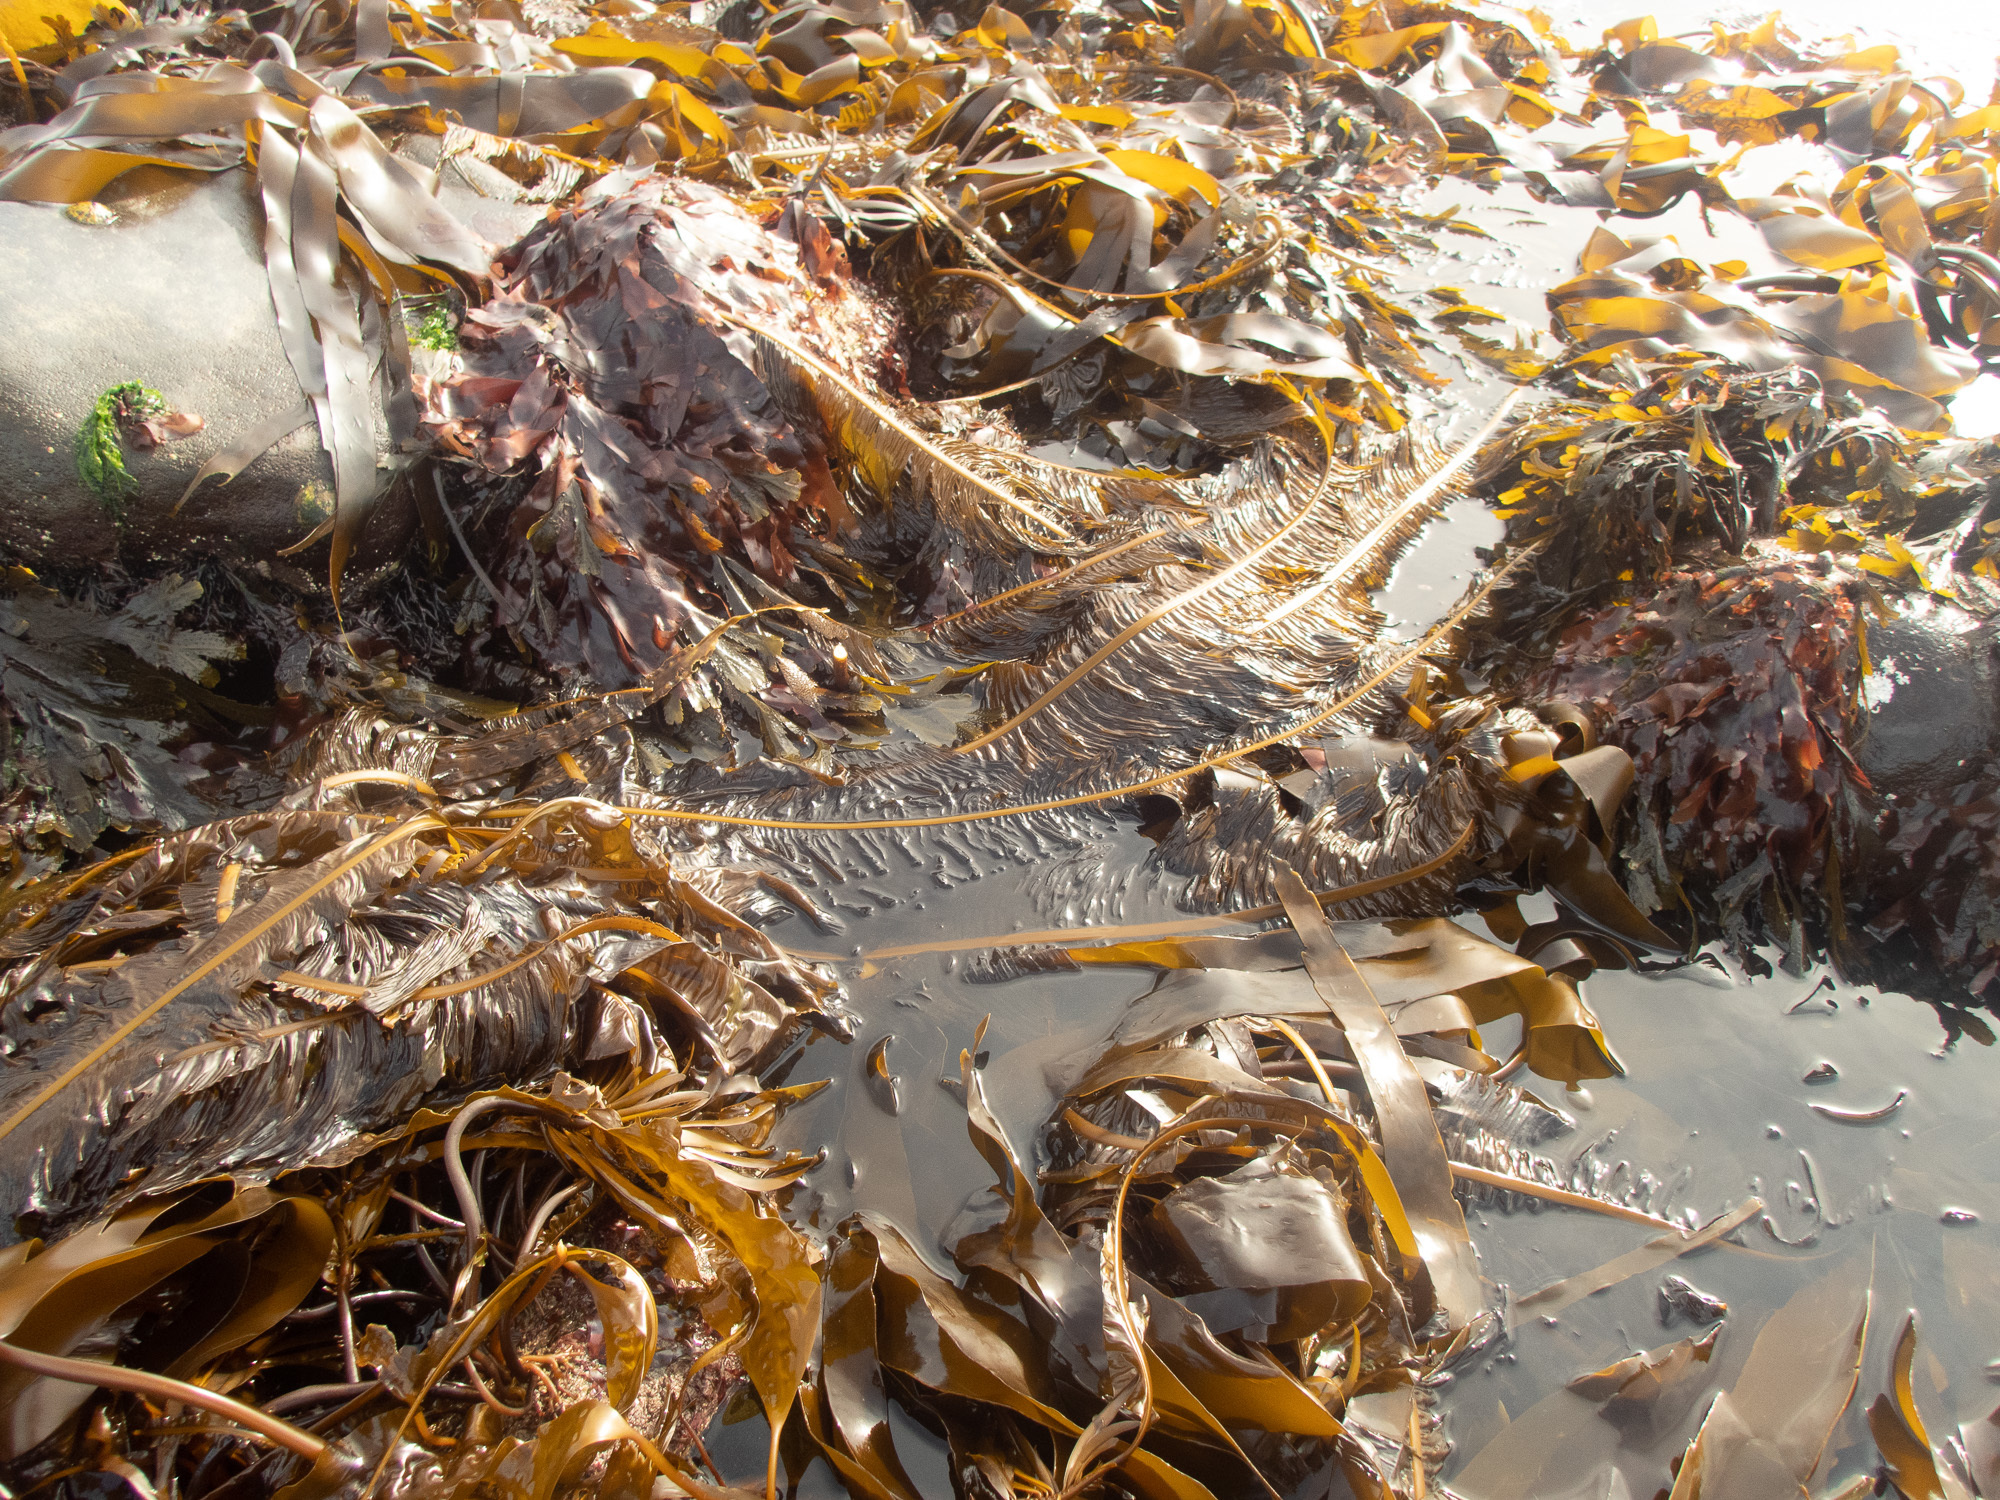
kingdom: Chromista
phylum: Ochrophyta
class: Phaeophyceae
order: Laminariales
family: Alariaceae
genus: Alaria
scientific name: Alaria esculenta
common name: Dabberlocks
